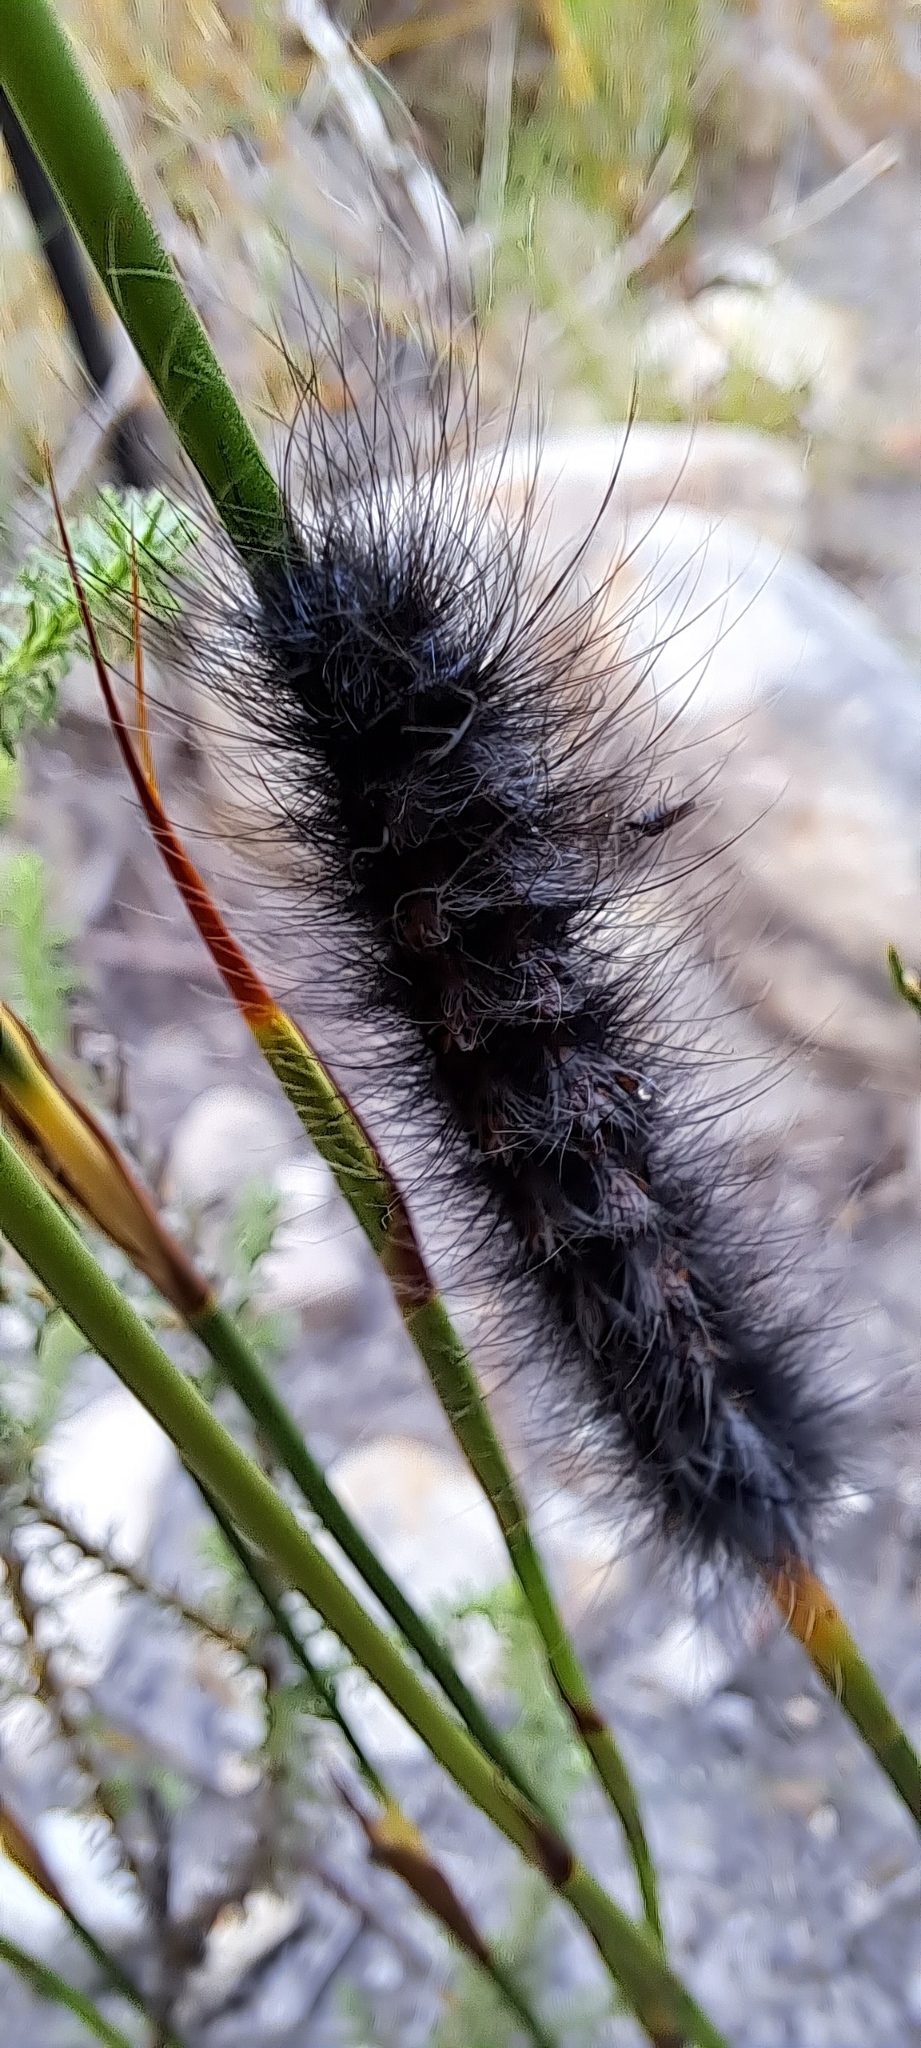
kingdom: Animalia
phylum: Arthropoda
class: Insecta
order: Lepidoptera
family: Lasiocampidae
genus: Mesocelis
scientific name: Mesocelis monticola
